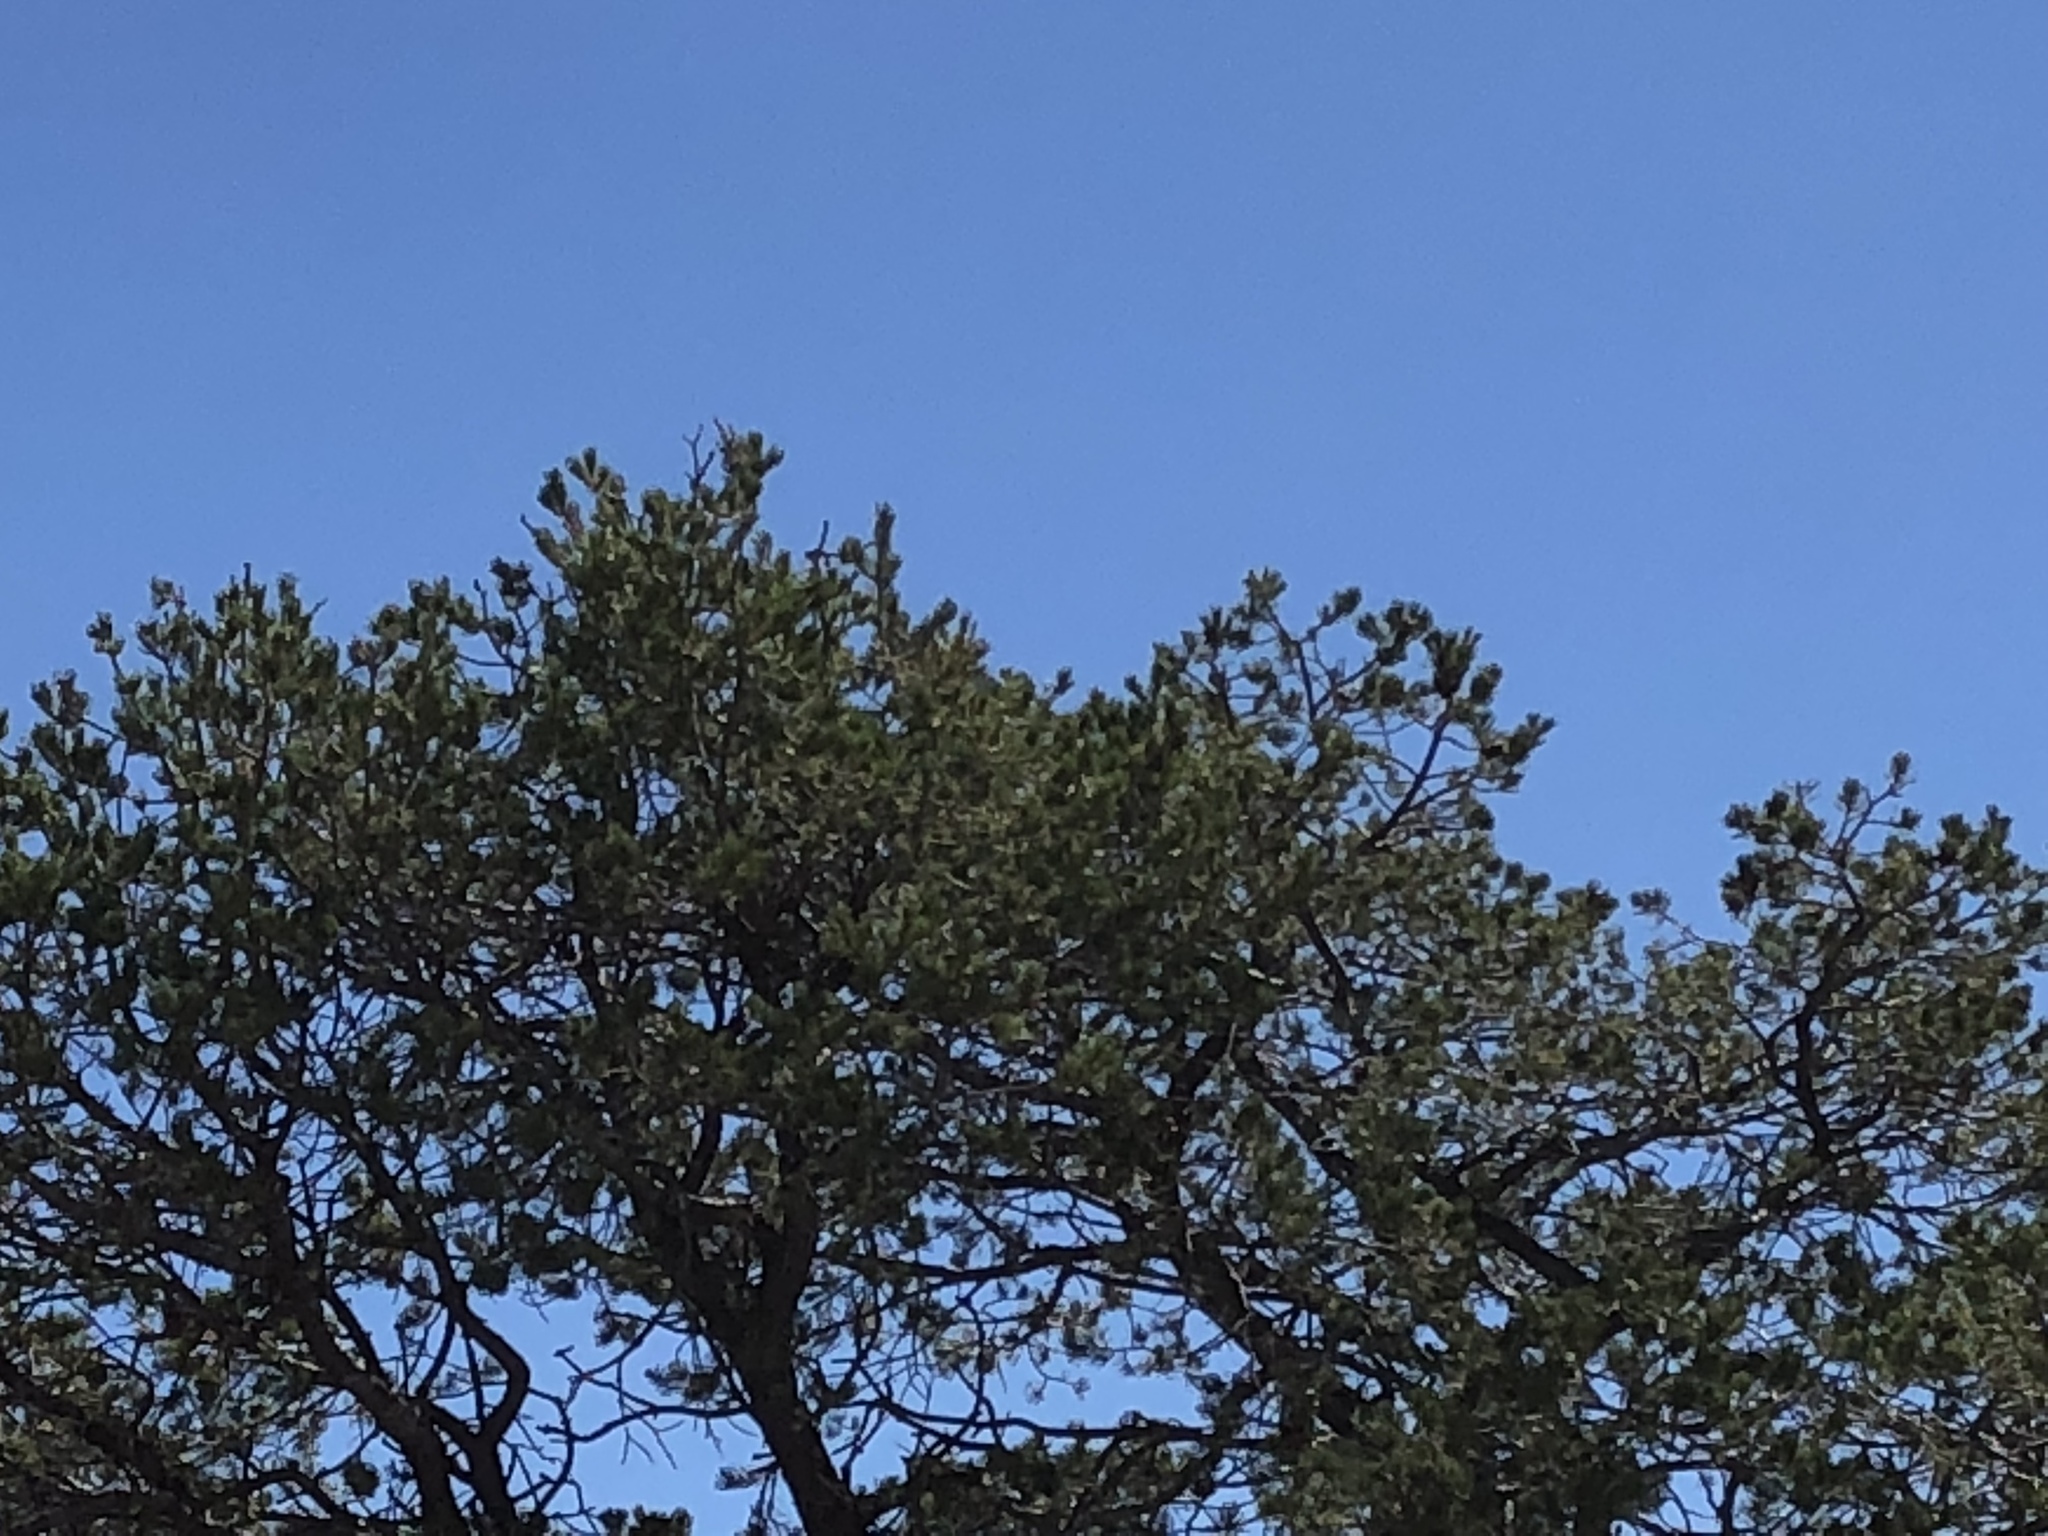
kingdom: Plantae
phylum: Tracheophyta
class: Pinopsida
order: Pinales
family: Pinaceae
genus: Pinus
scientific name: Pinus edulis
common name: Colorado pinyon
